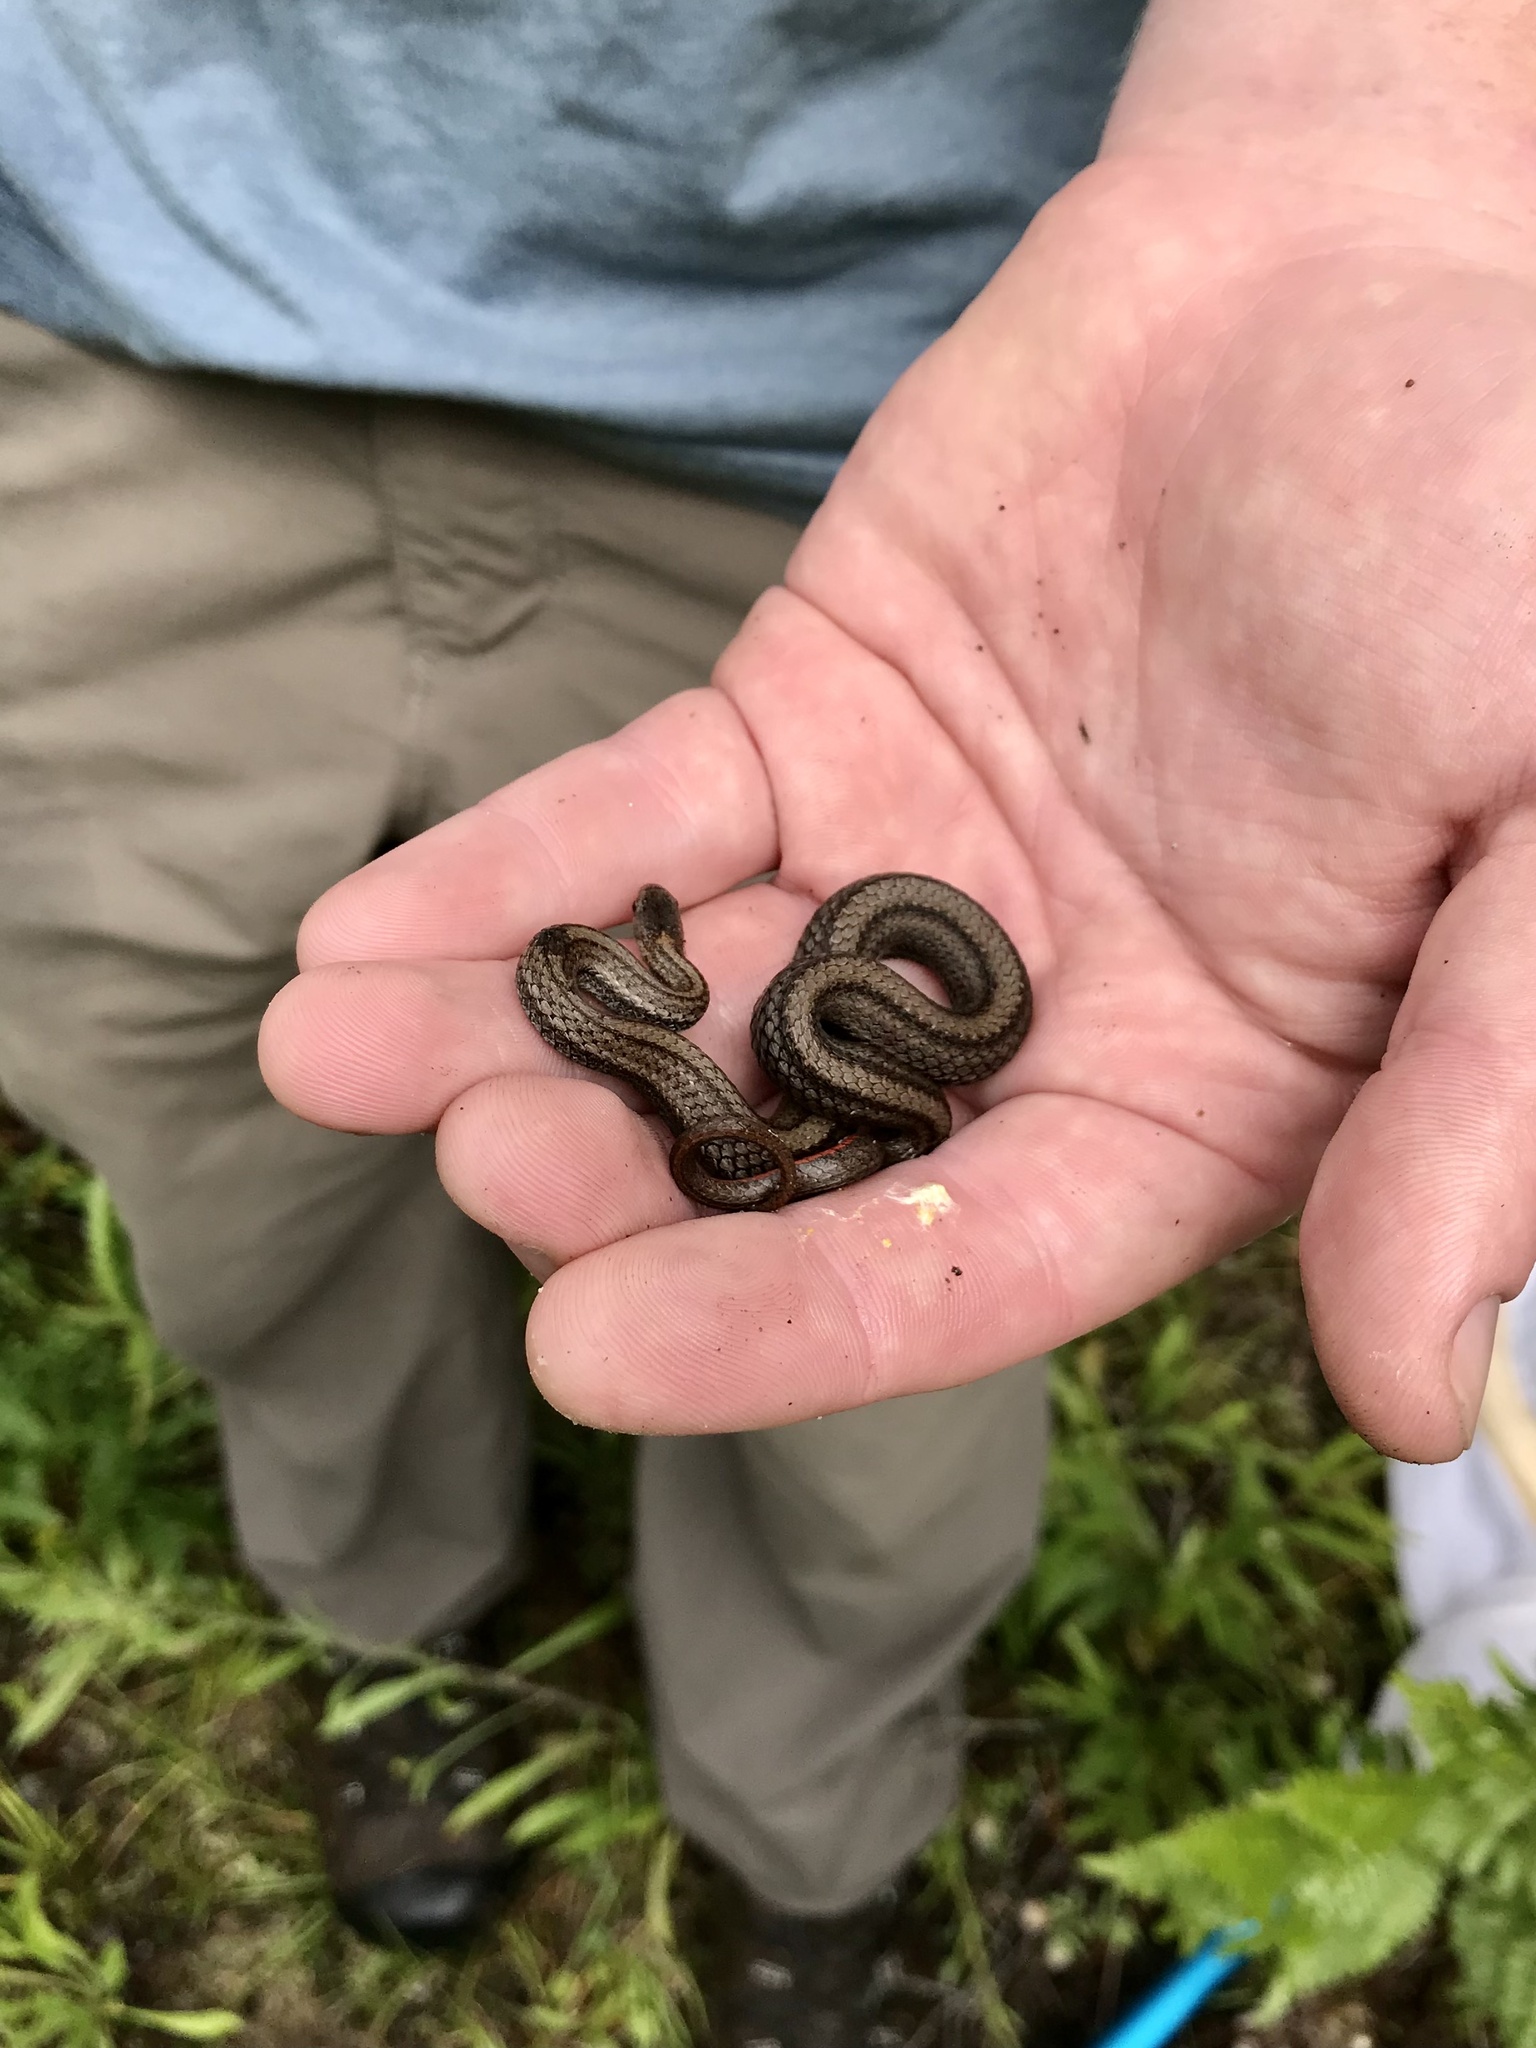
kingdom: Animalia
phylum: Chordata
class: Squamata
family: Colubridae
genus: Storeria
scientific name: Storeria occipitomaculata
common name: Redbelly snake
